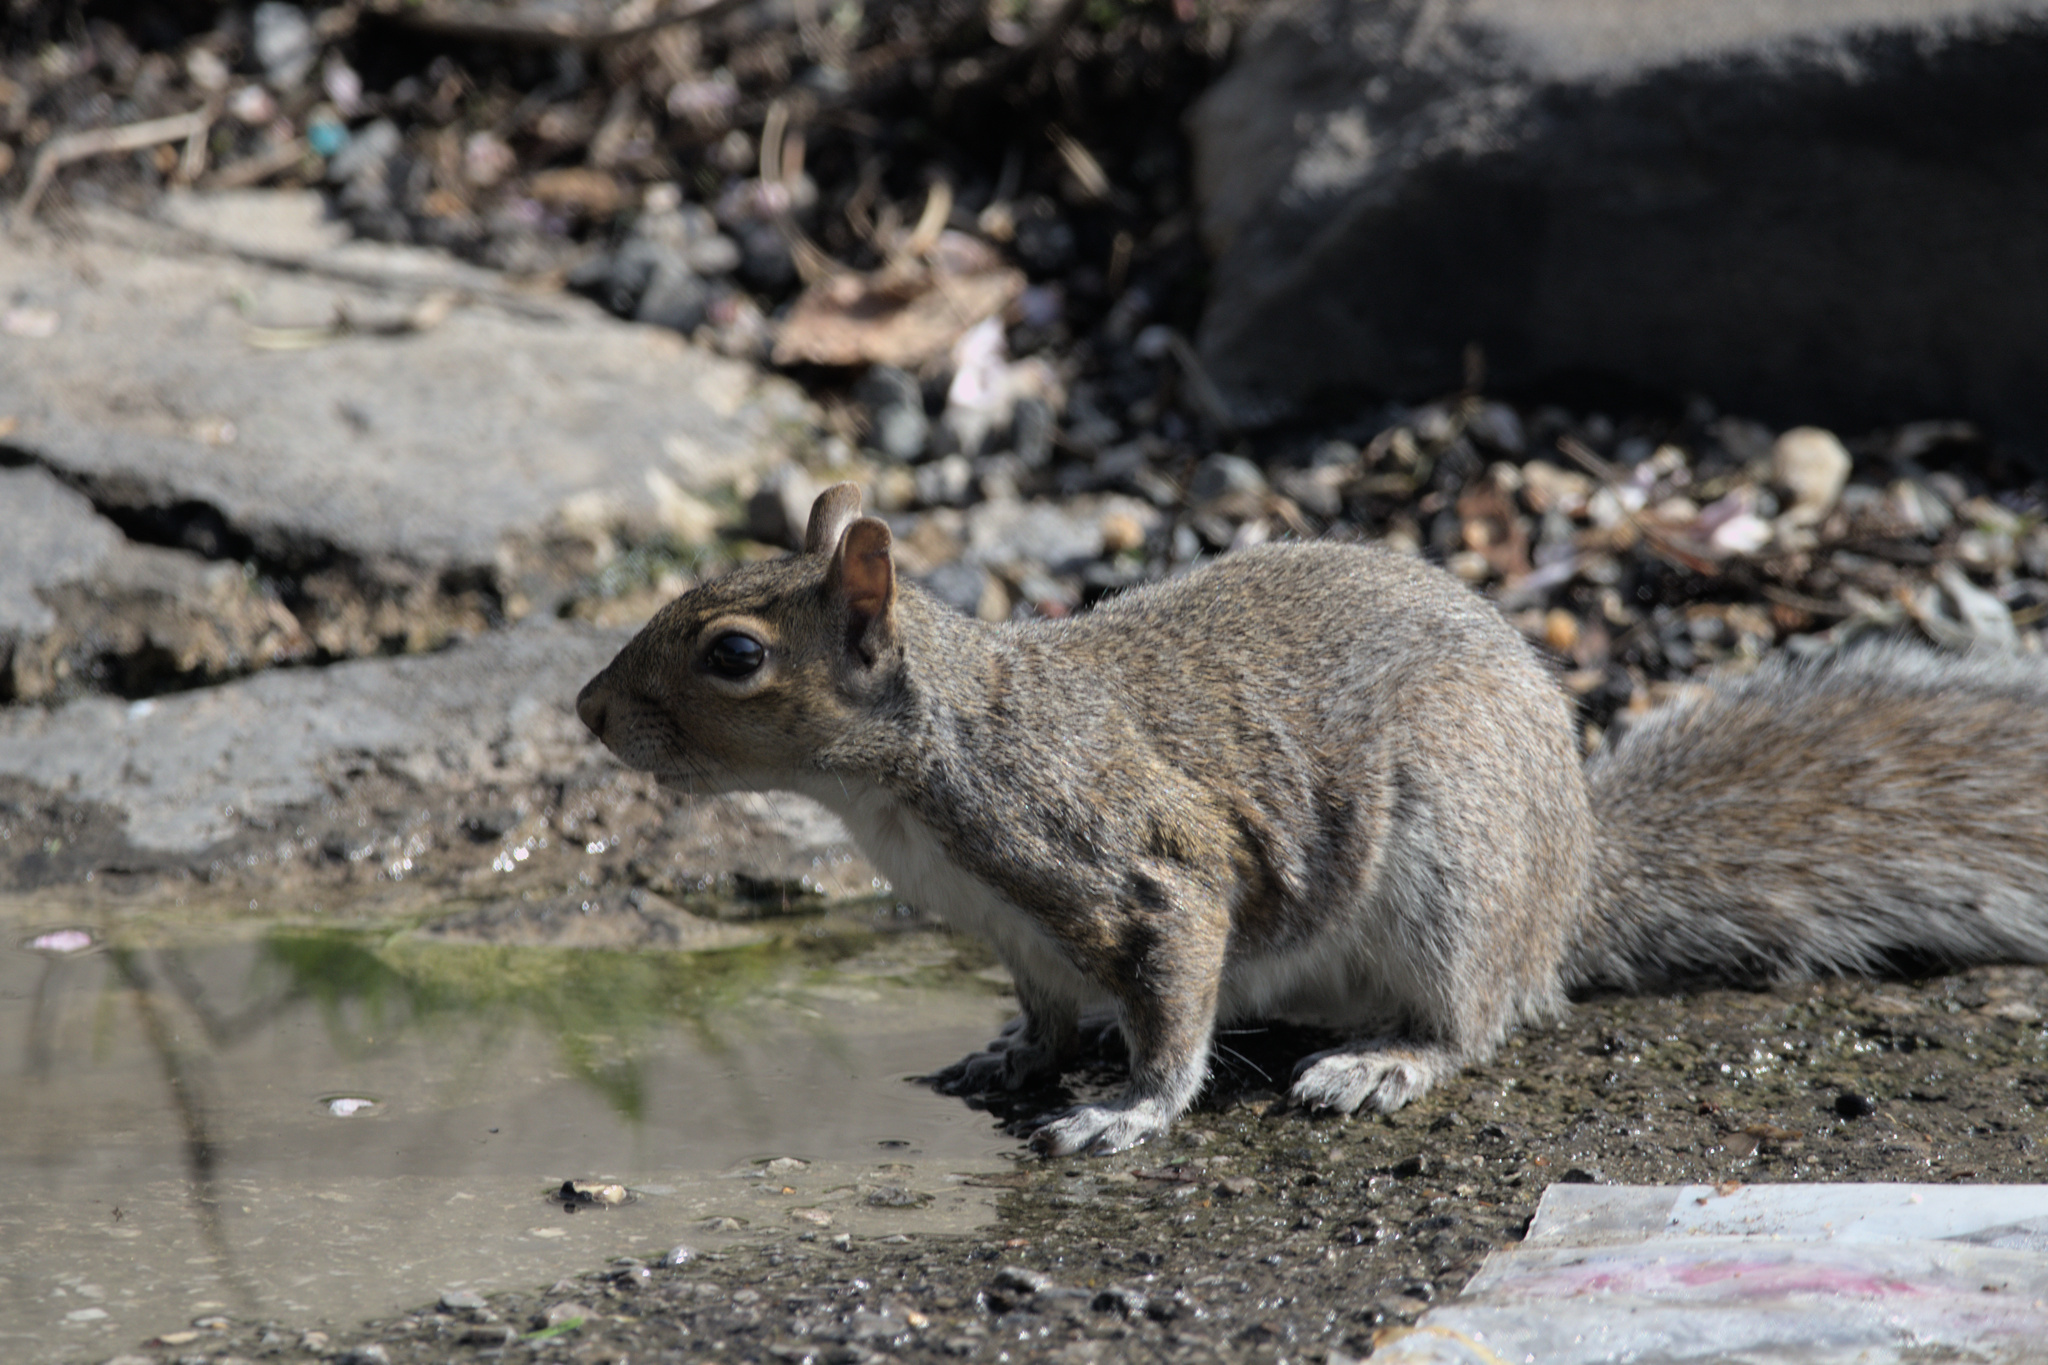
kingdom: Animalia
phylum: Chordata
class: Mammalia
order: Rodentia
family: Sciuridae
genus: Sciurus
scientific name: Sciurus carolinensis
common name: Eastern gray squirrel
